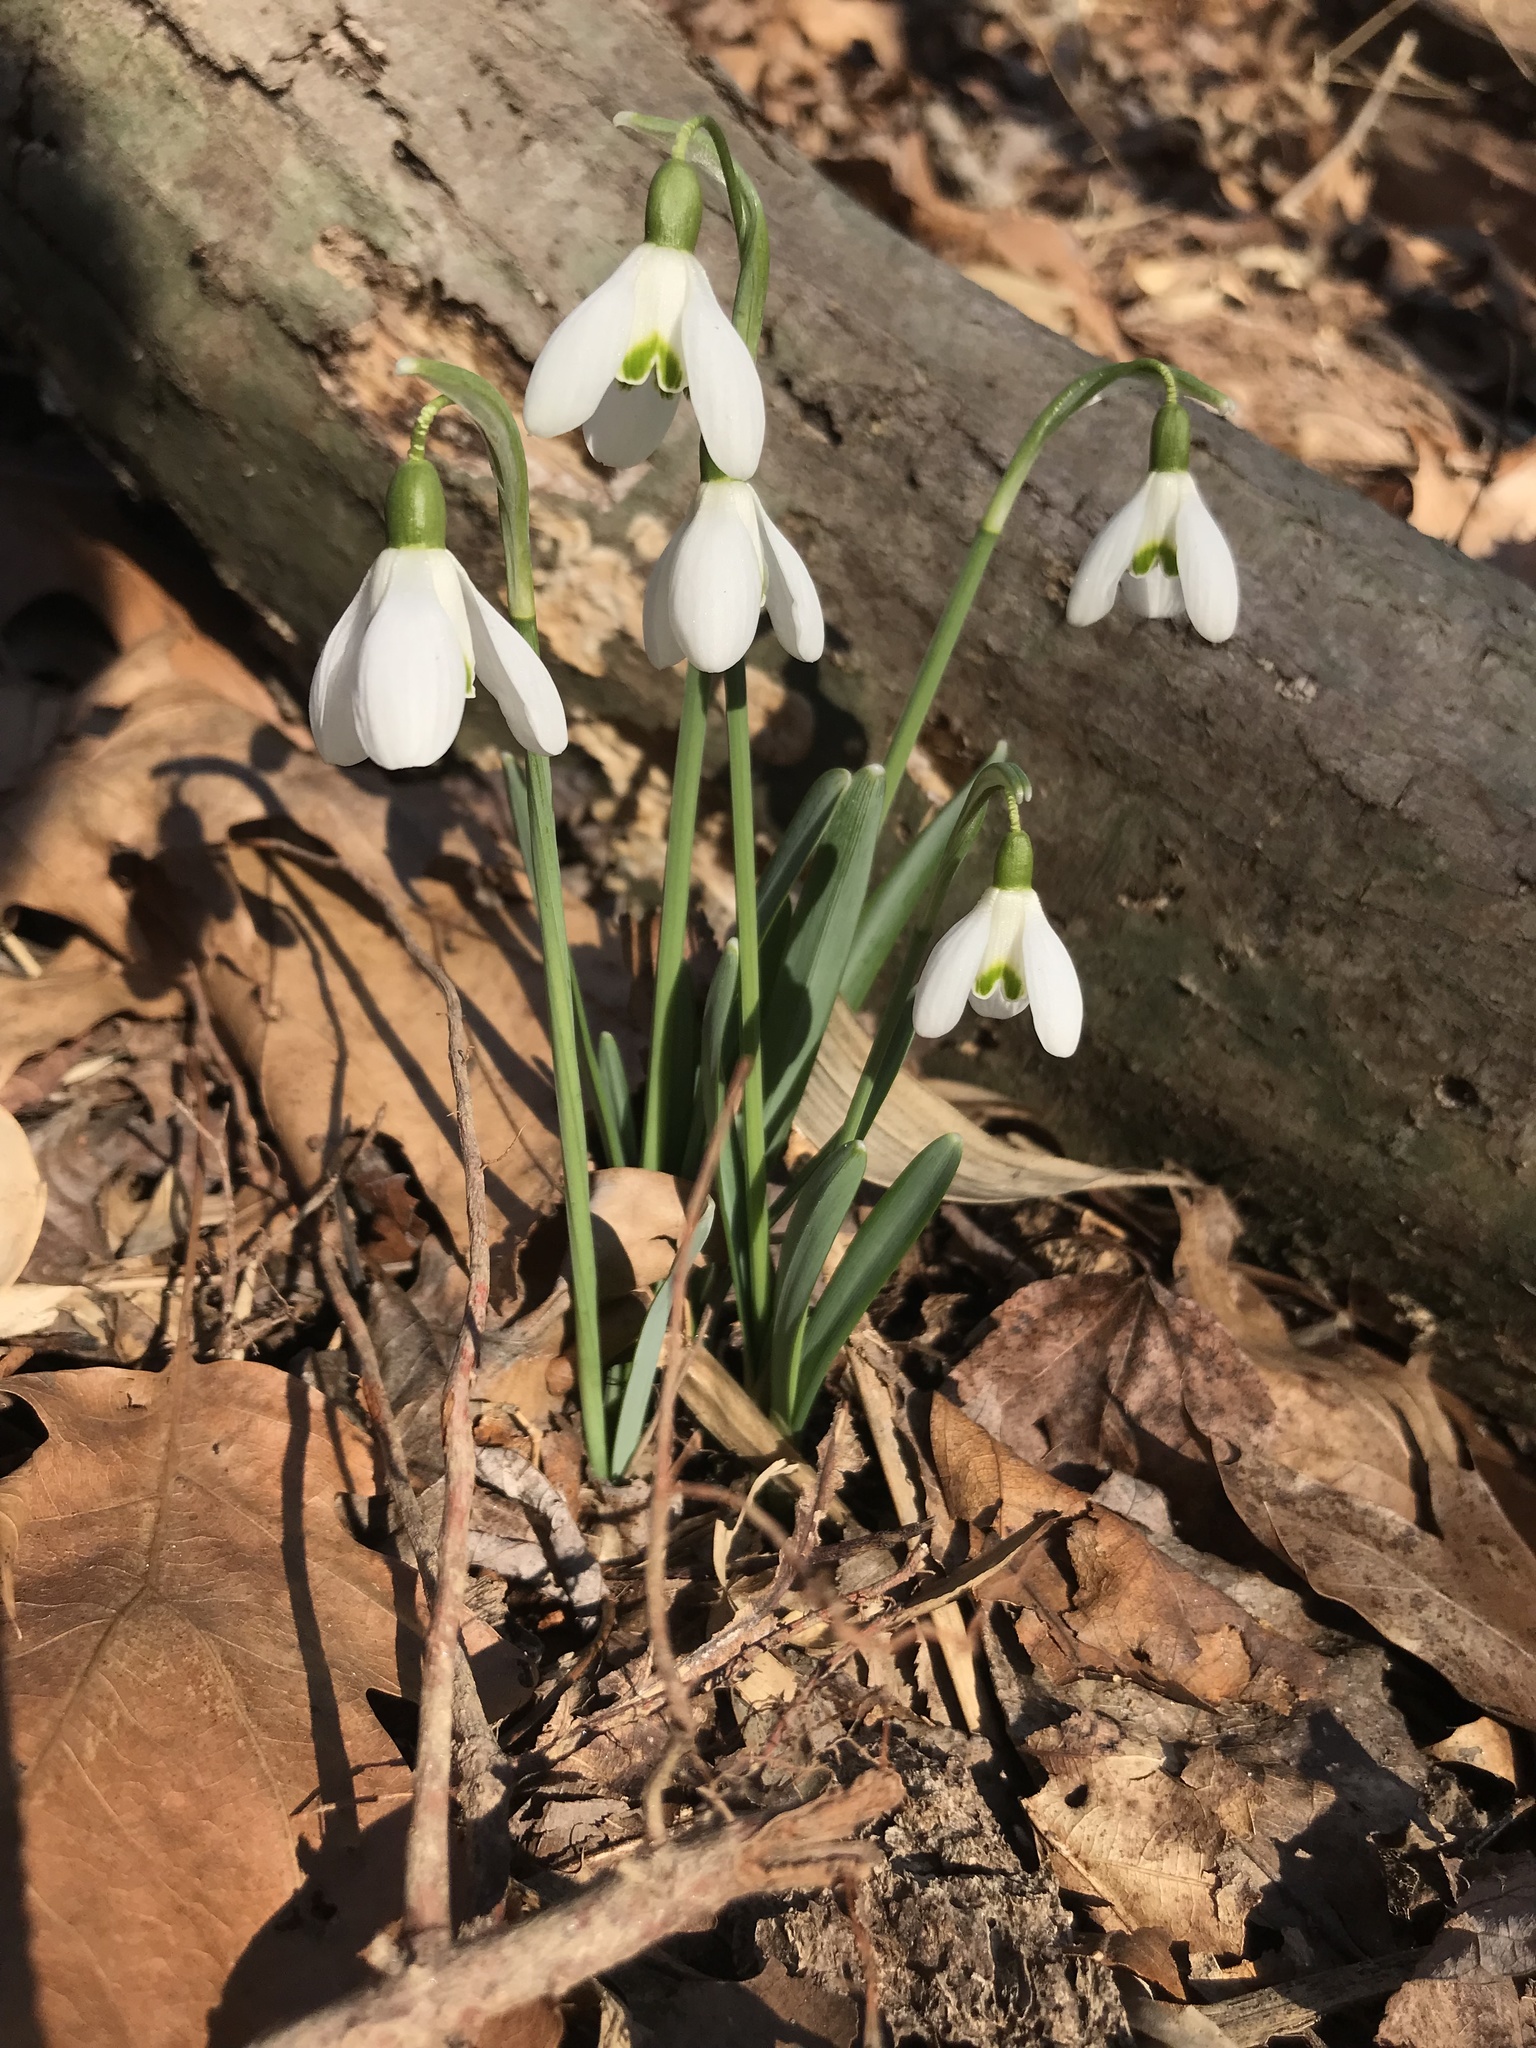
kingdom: Plantae
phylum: Tracheophyta
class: Liliopsida
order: Asparagales
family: Amaryllidaceae
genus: Galanthus
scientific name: Galanthus nivalis
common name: Snowdrop
